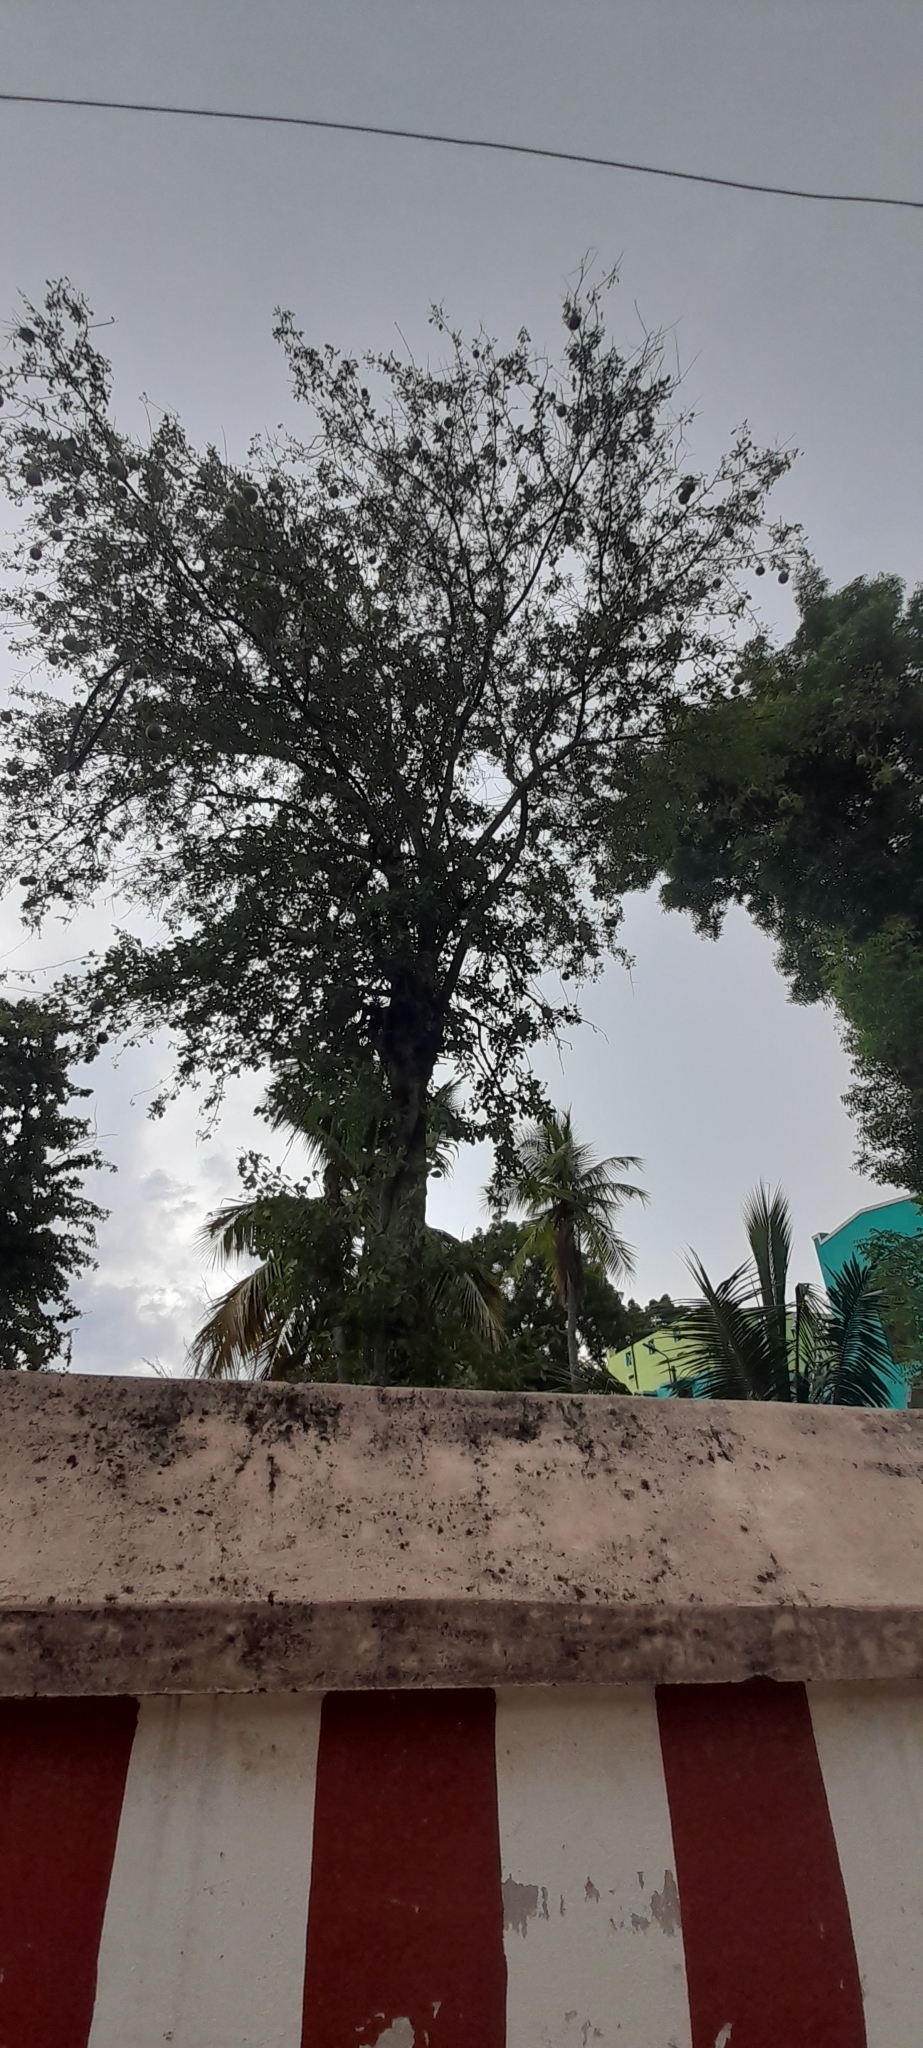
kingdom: Plantae
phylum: Tracheophyta
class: Magnoliopsida
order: Sapindales
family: Rutaceae
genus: Aegle
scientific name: Aegle marmelos
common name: Bael
